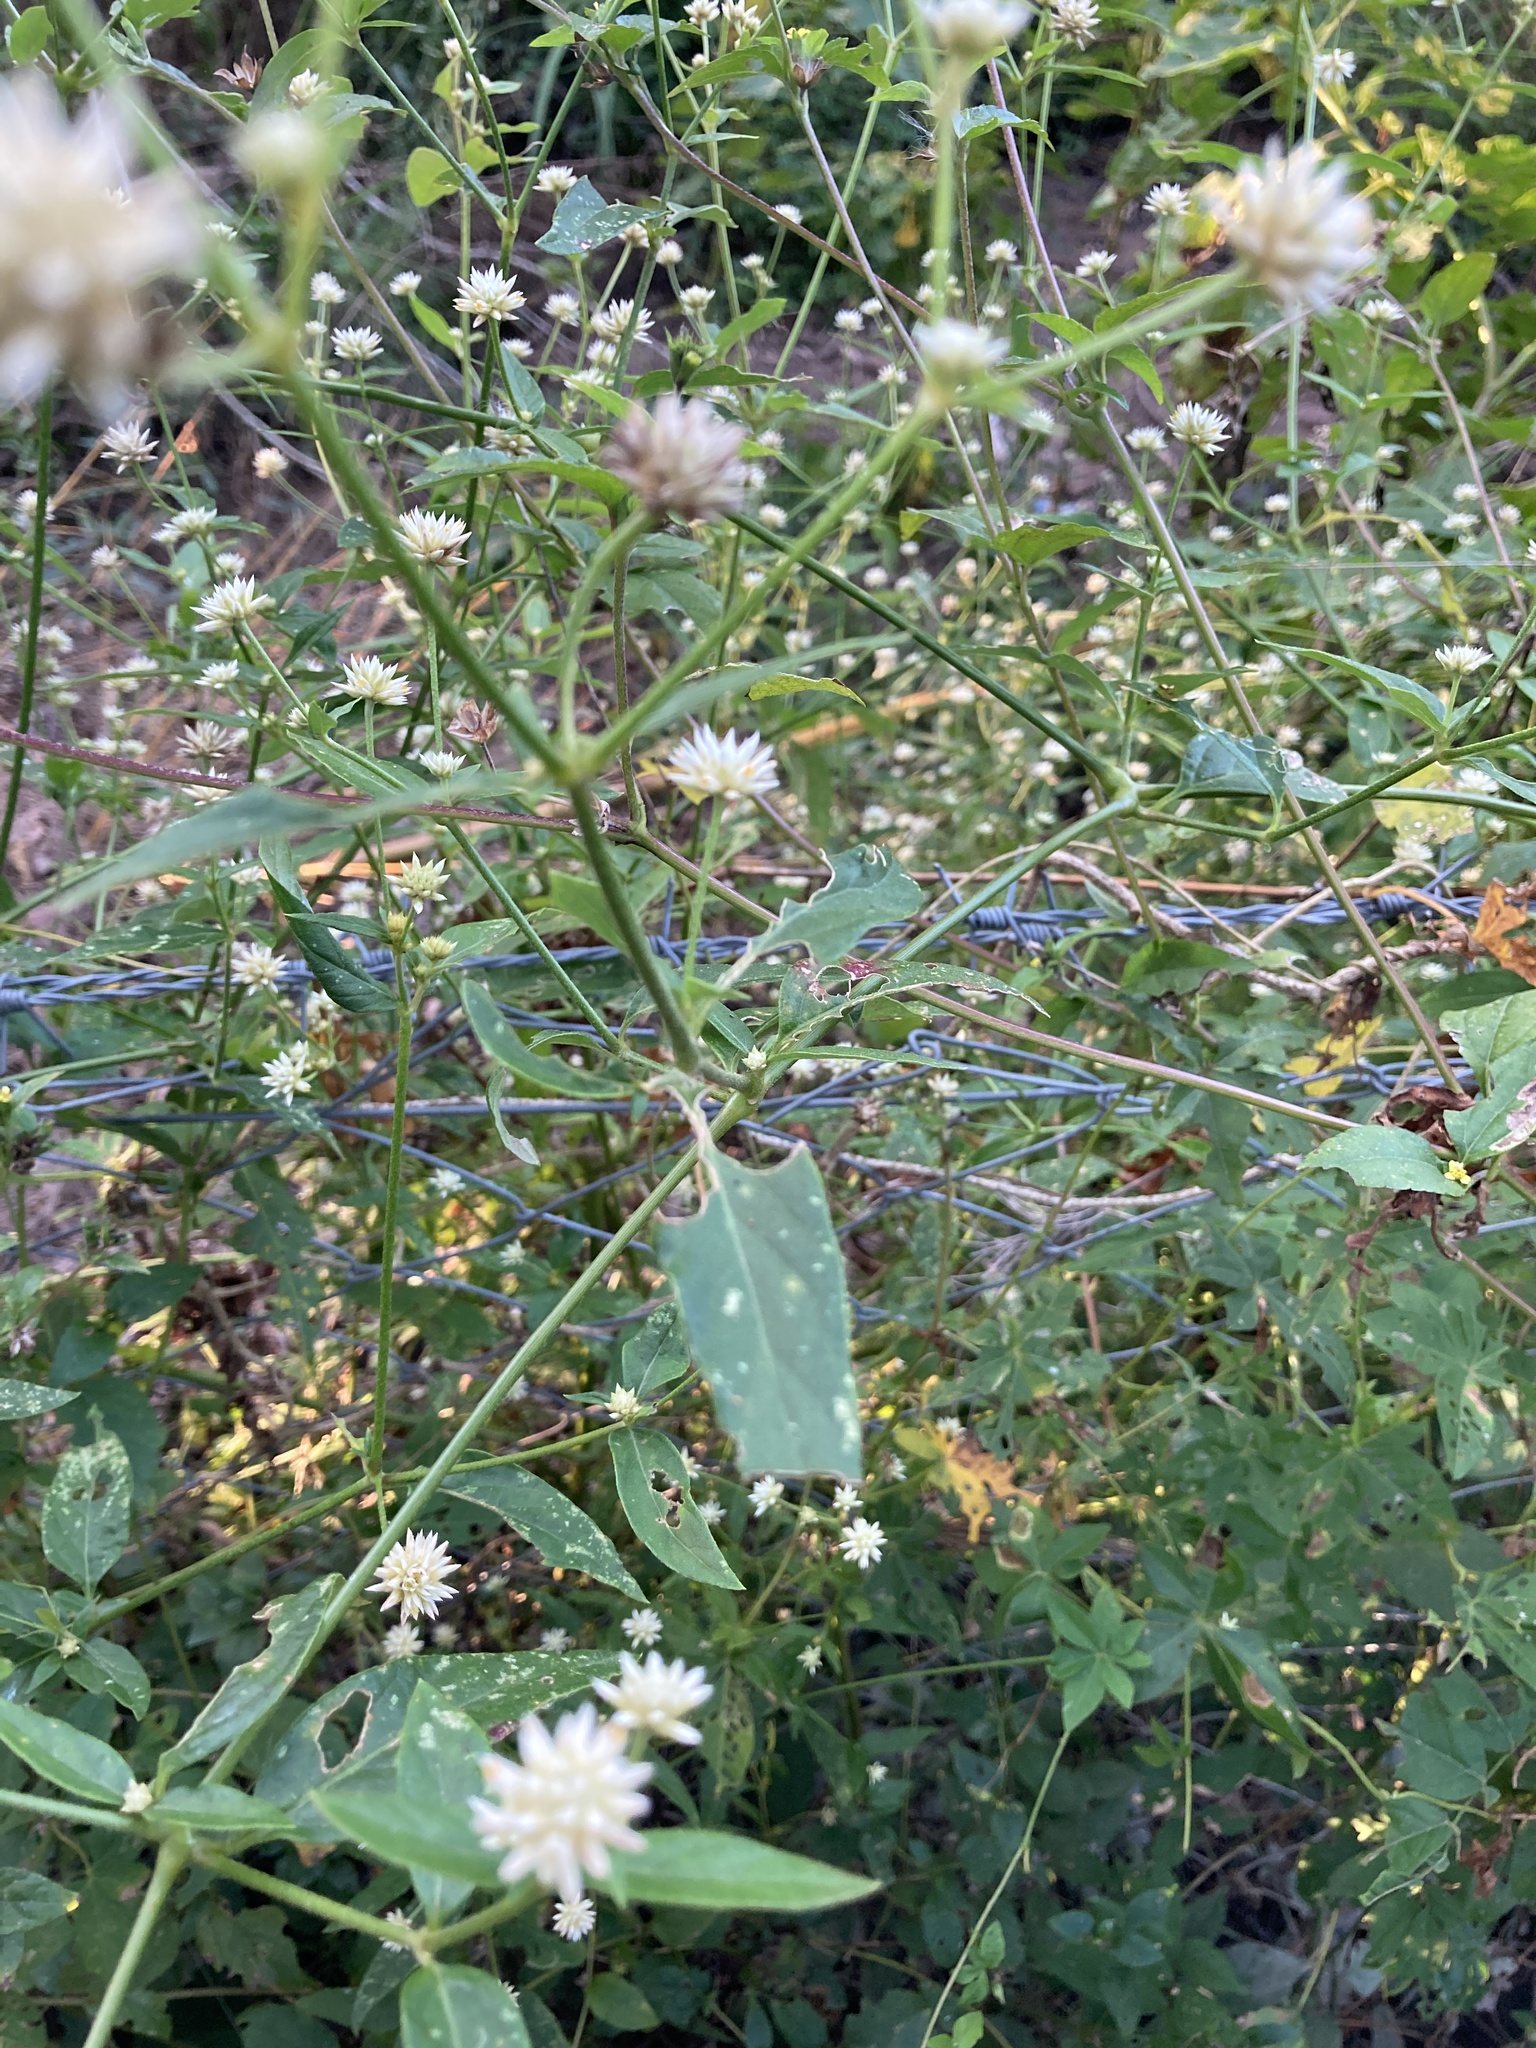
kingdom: Plantae
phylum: Tracheophyta
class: Magnoliopsida
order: Caryophyllales
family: Amaranthaceae
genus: Pfaffia
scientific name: Pfaffia glomerata
